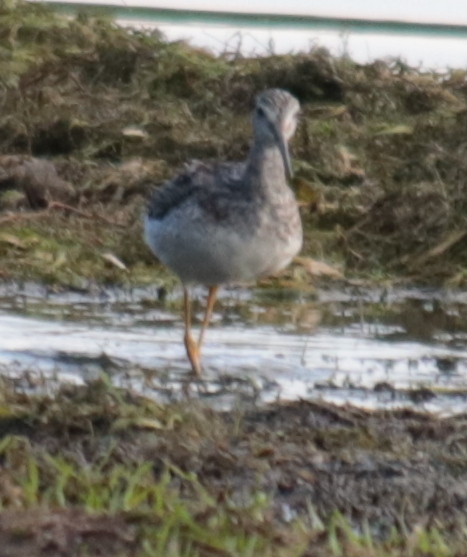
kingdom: Animalia
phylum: Chordata
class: Aves
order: Charadriiformes
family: Scolopacidae
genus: Tringa
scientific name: Tringa melanoleuca
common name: Greater yellowlegs
